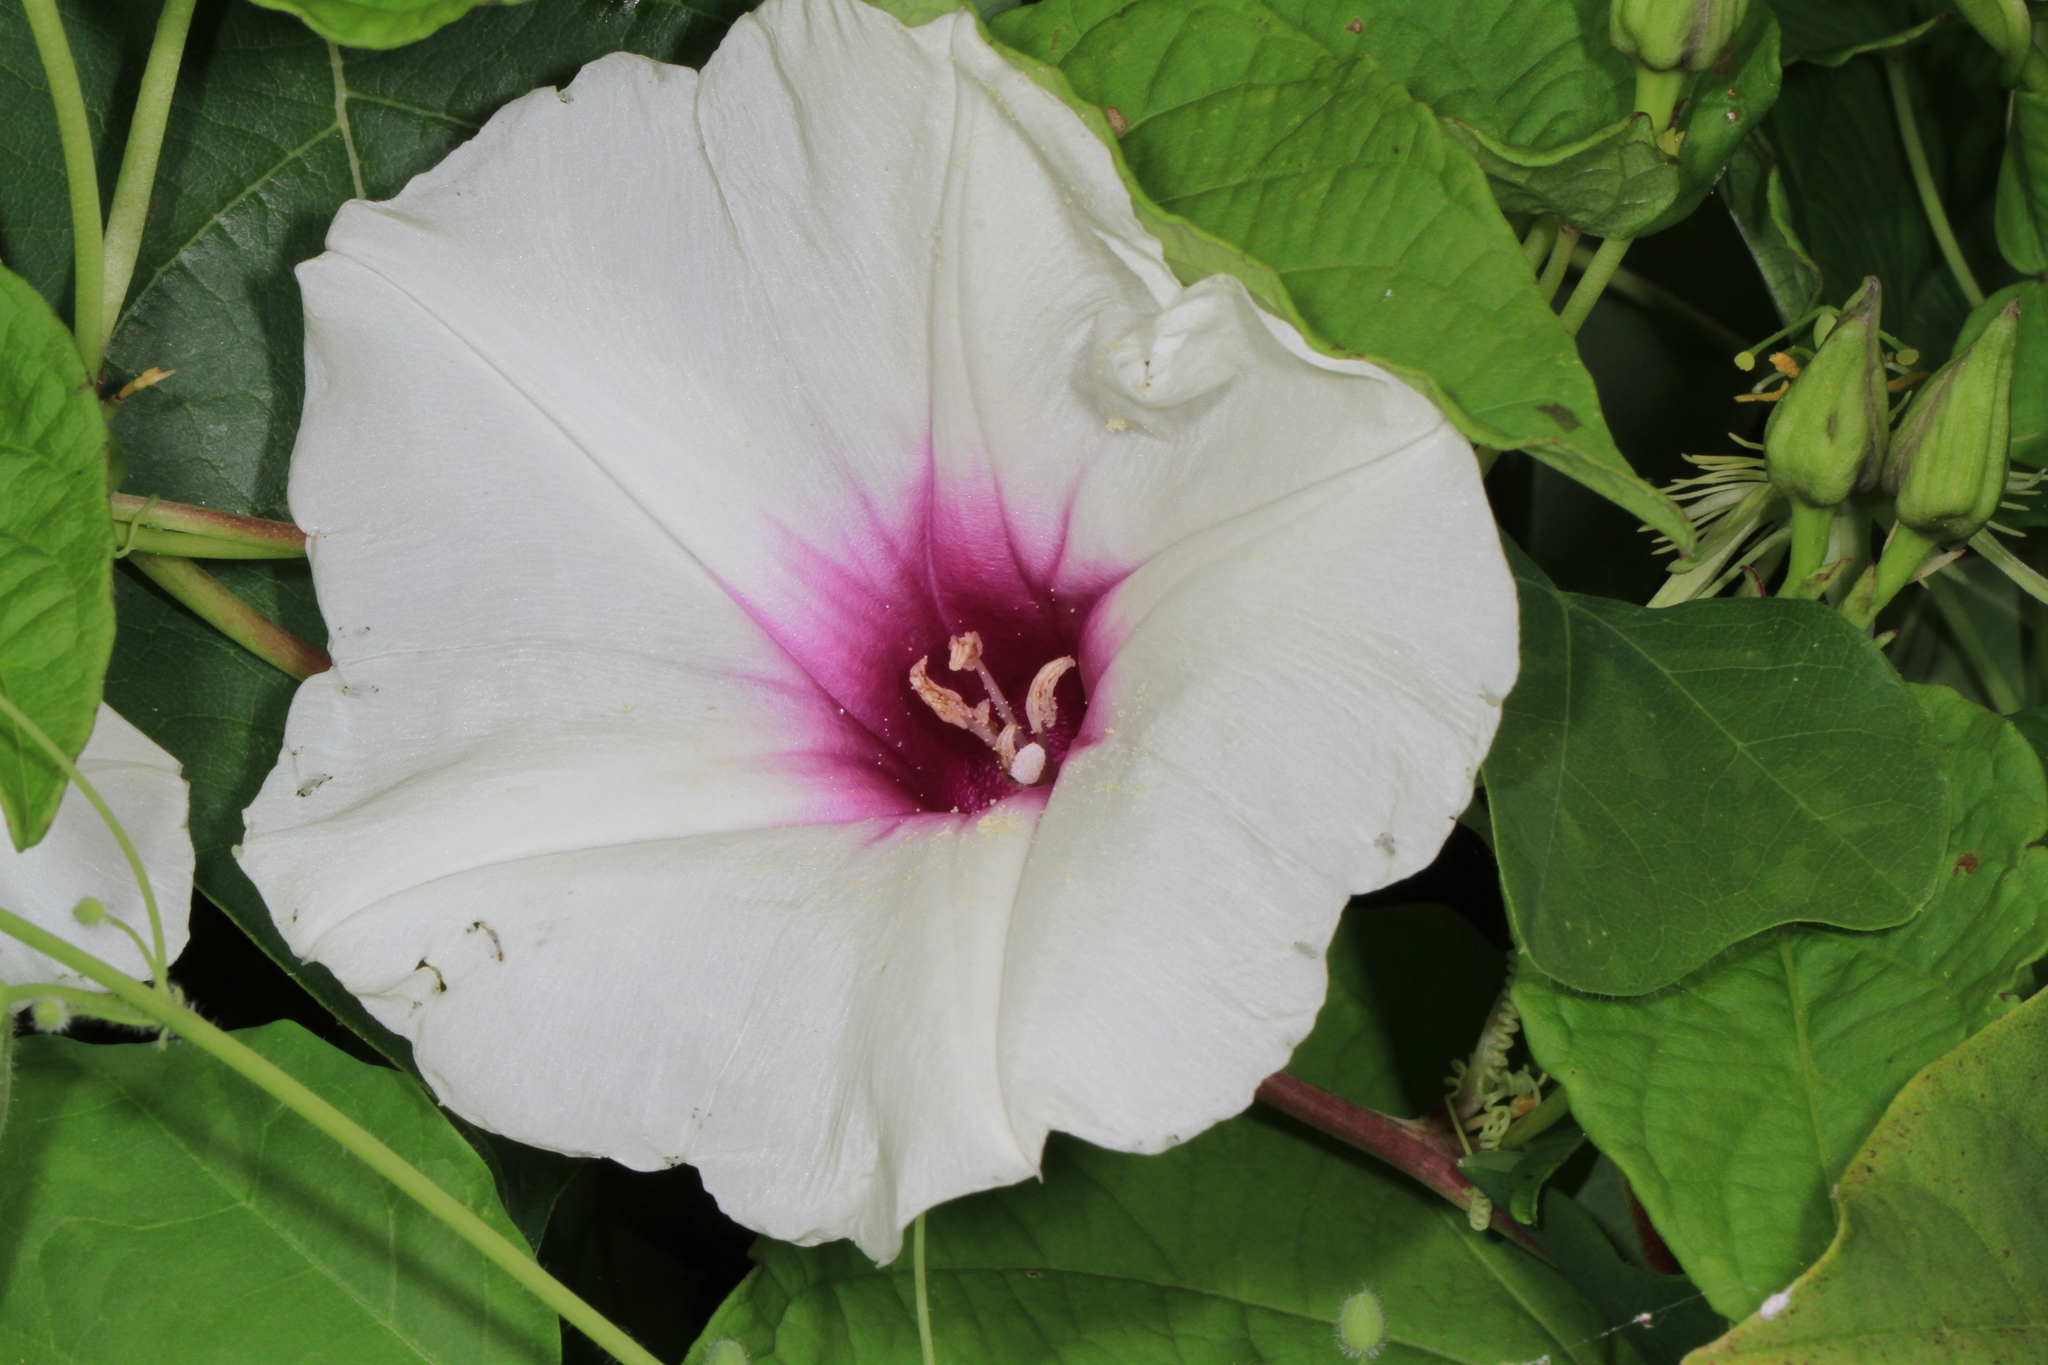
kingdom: Plantae
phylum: Tracheophyta
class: Magnoliopsida
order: Solanales
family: Convolvulaceae
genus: Ipomoea
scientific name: Ipomoea pandurata
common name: Man-of-the-earth
